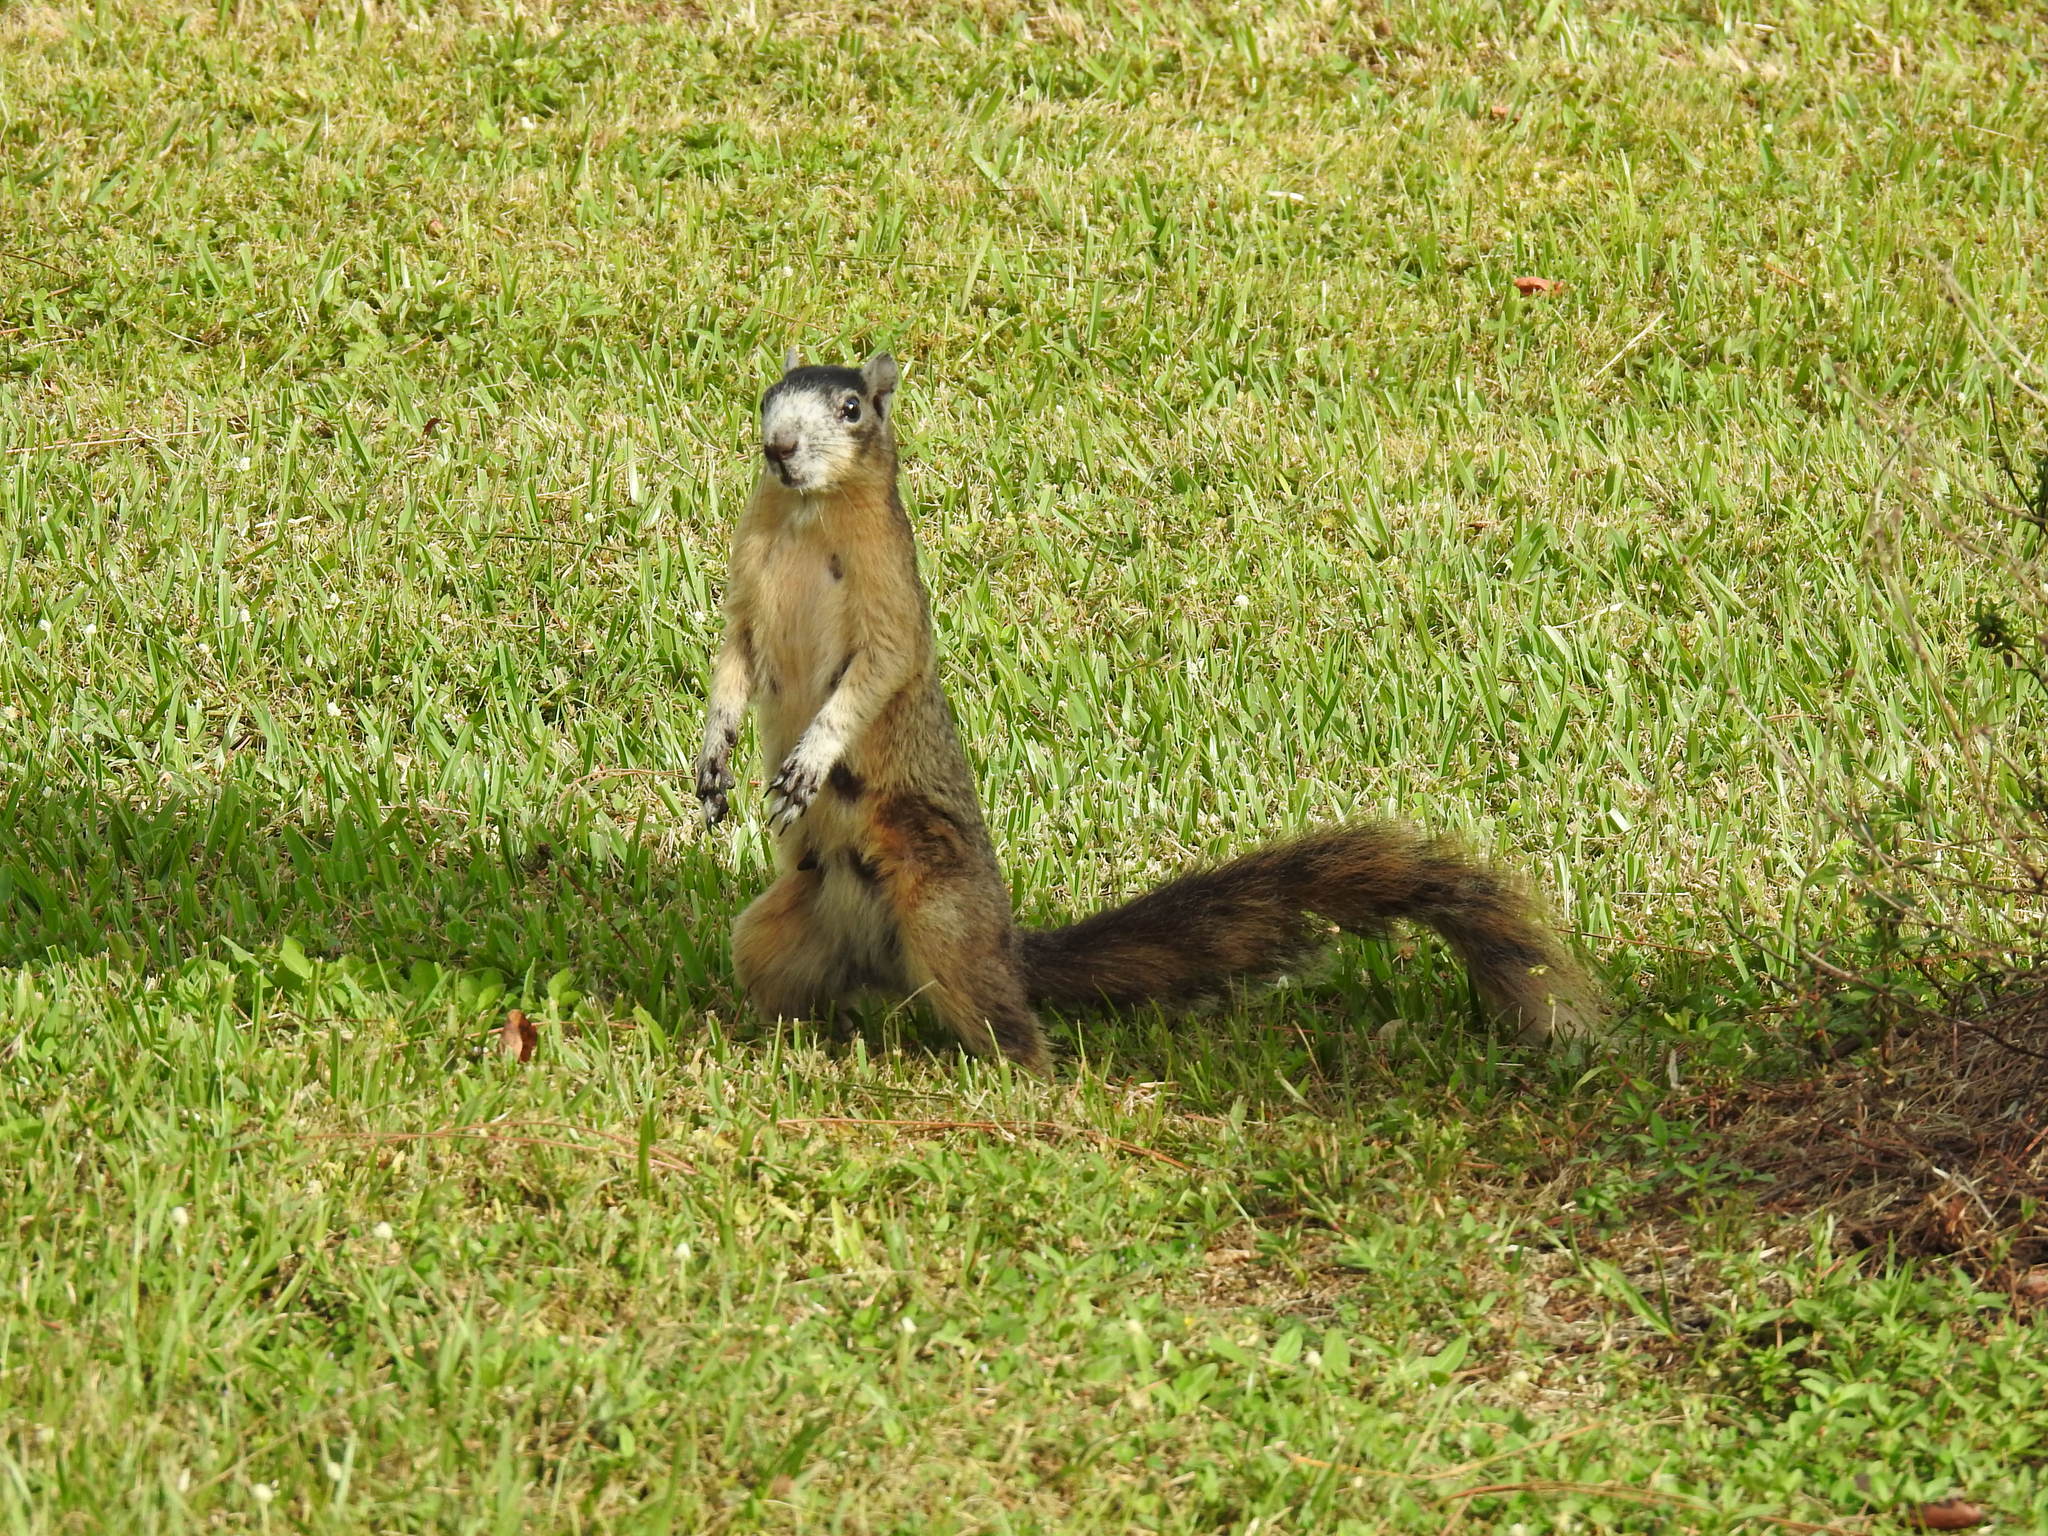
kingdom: Animalia
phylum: Chordata
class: Mammalia
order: Rodentia
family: Sciuridae
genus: Sciurus
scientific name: Sciurus niger
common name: Fox squirrel
